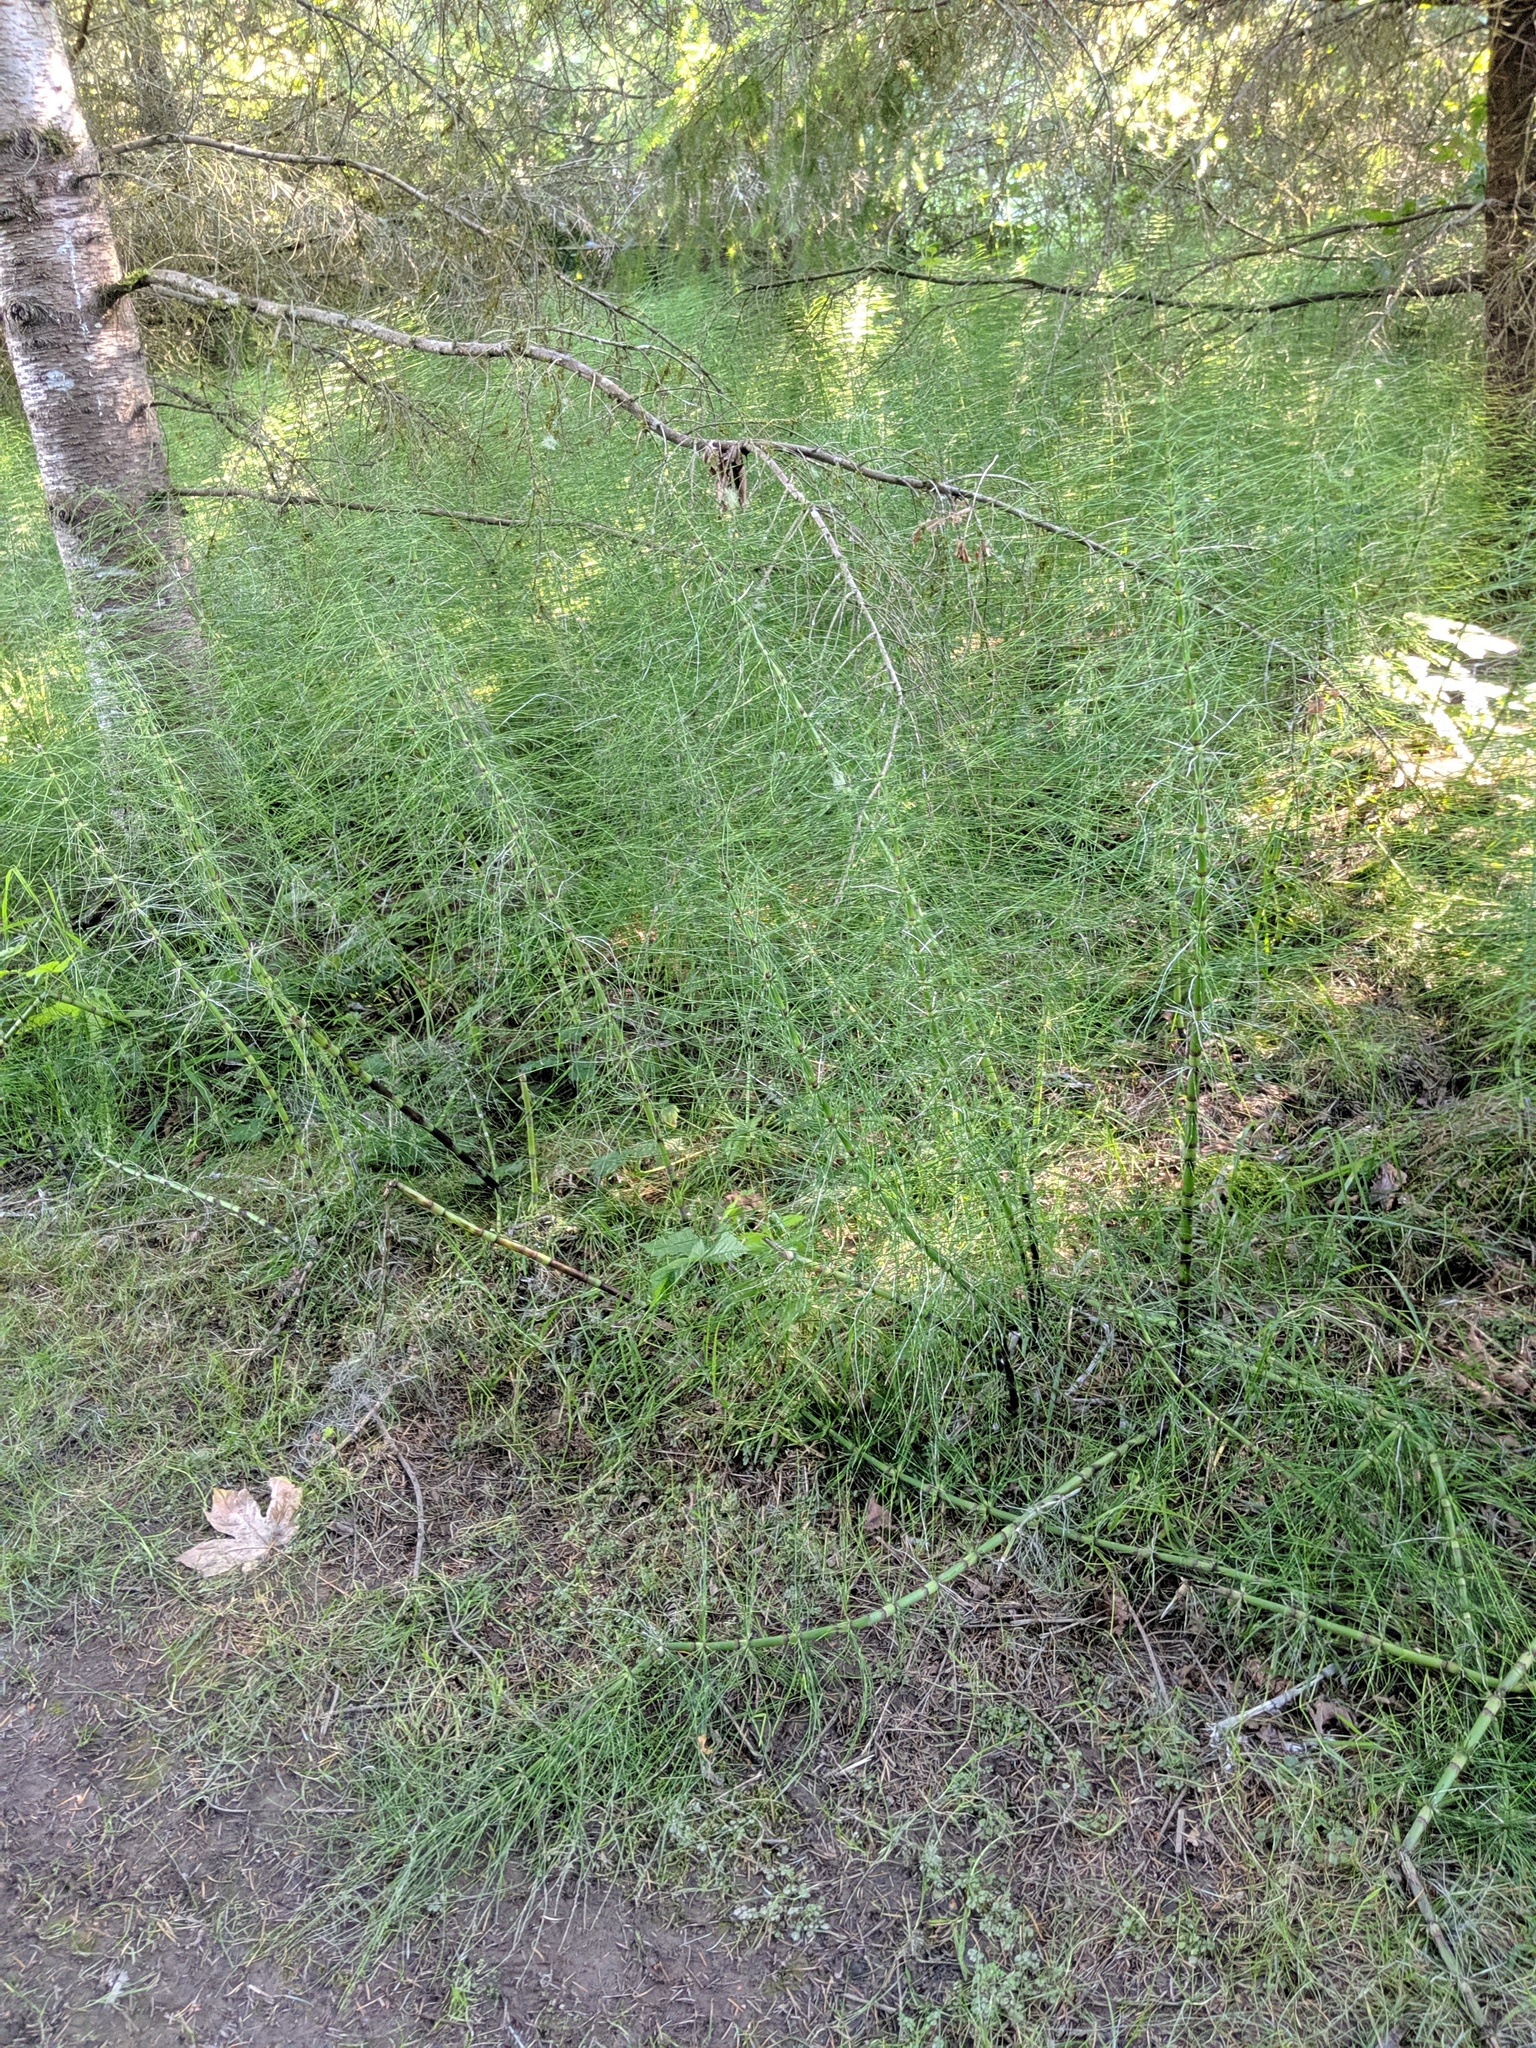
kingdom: Plantae
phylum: Tracheophyta
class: Polypodiopsida
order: Equisetales
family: Equisetaceae
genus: Equisetum
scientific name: Equisetum braunii
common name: Braun's horsetail
